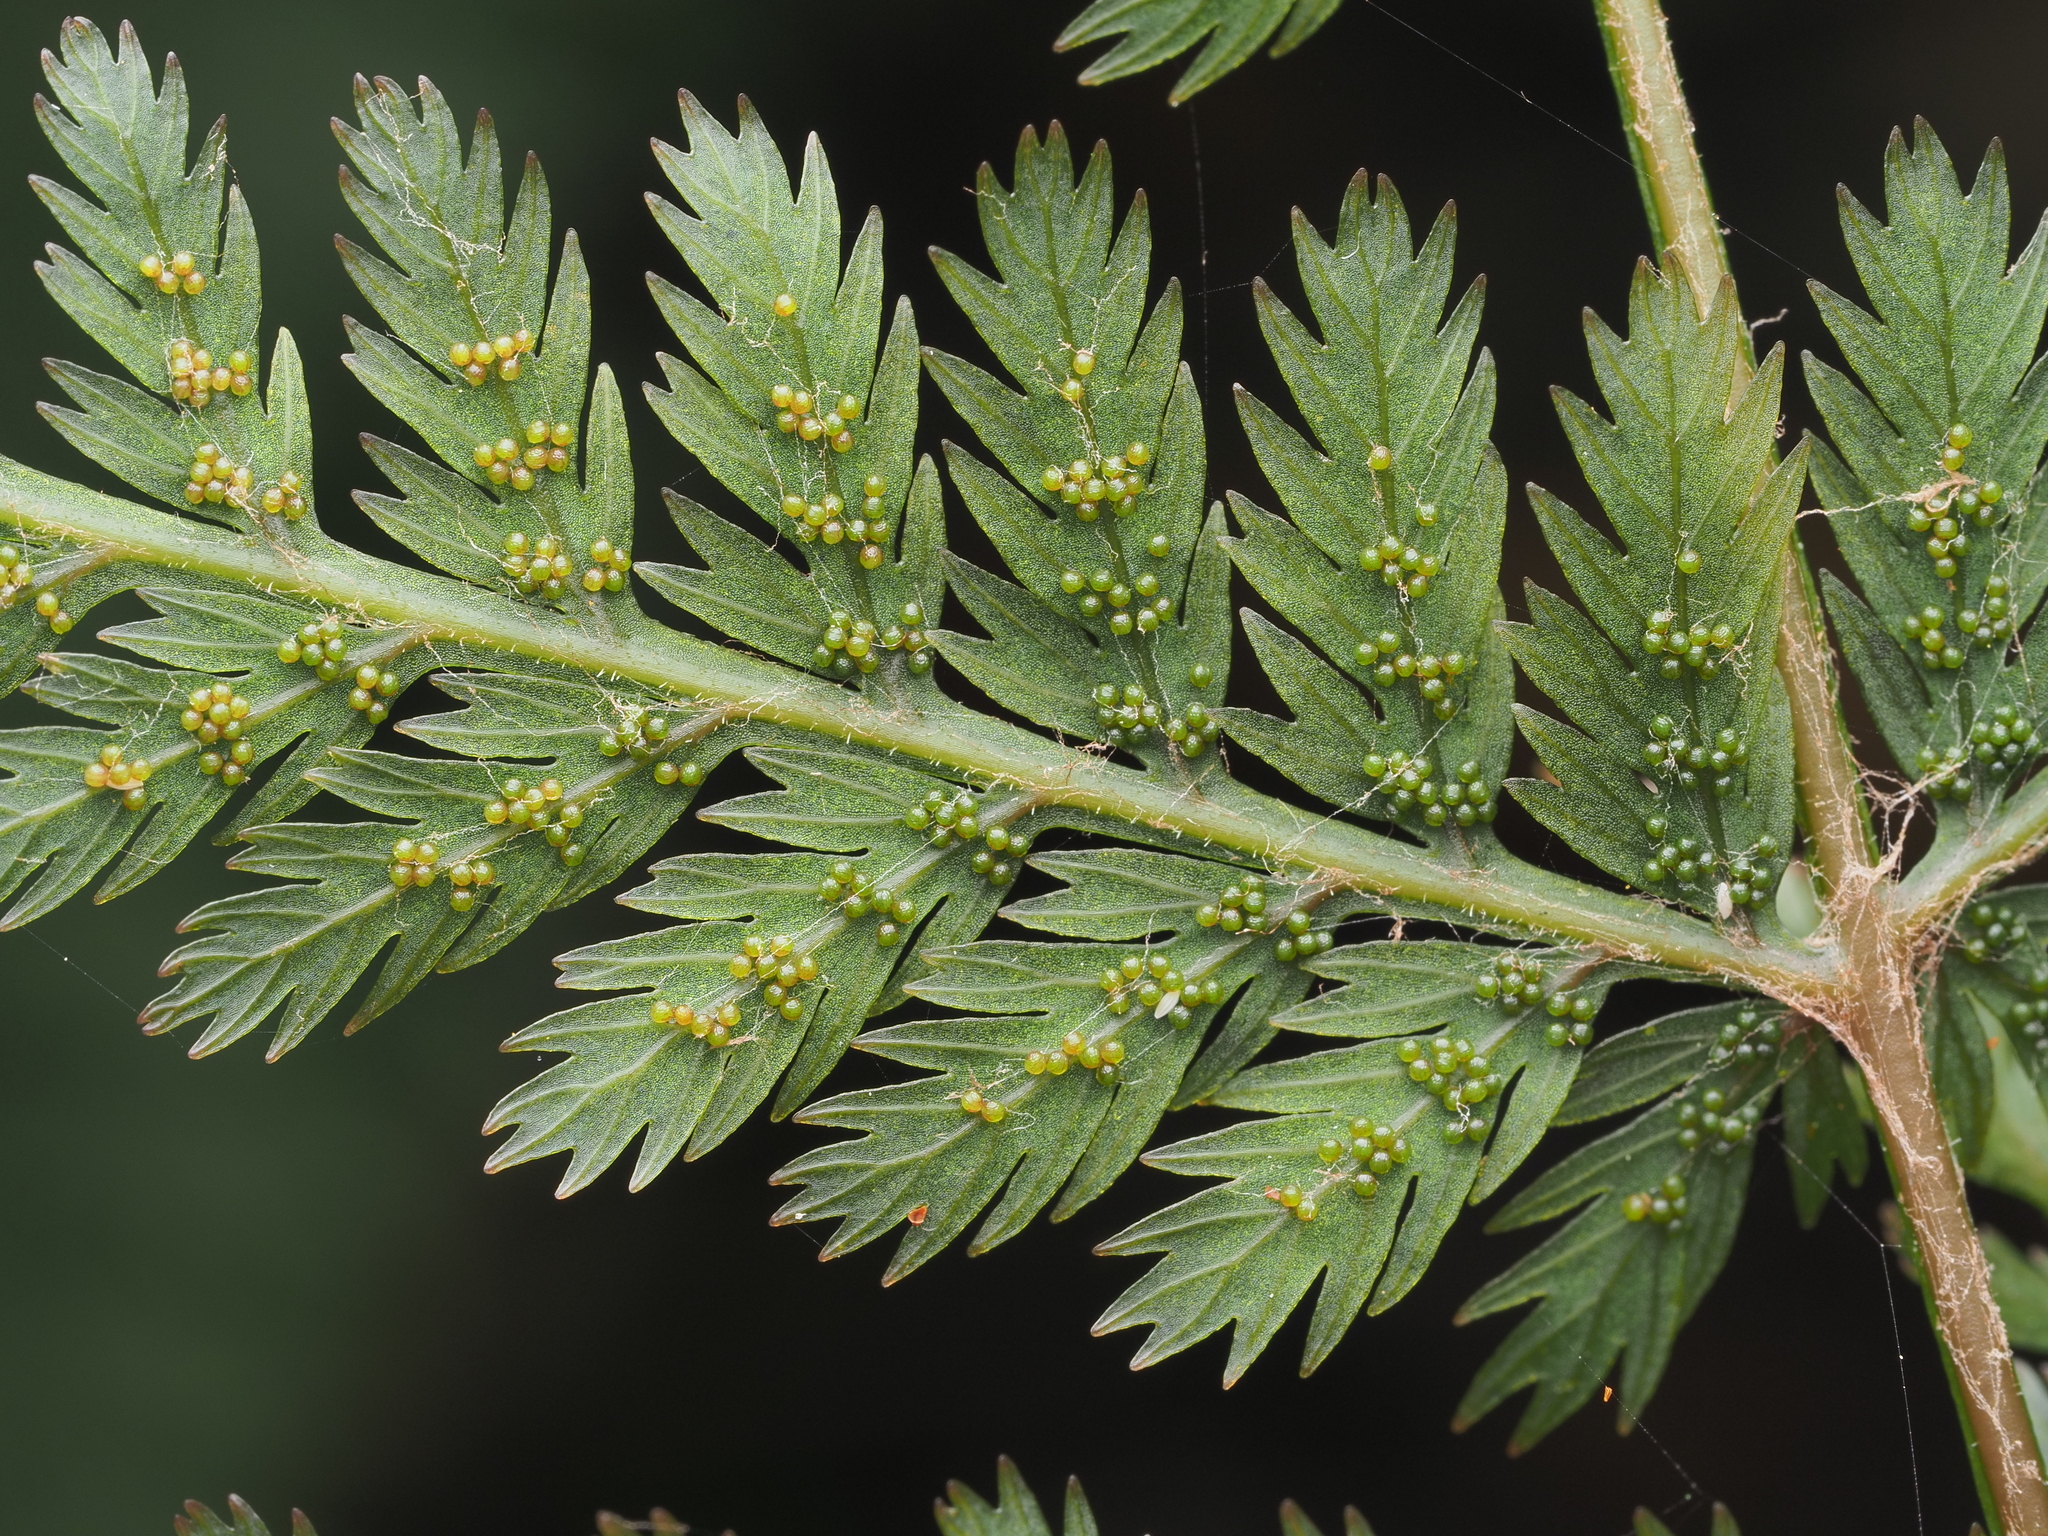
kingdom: Plantae
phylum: Tracheophyta
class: Polypodiopsida
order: Osmundales
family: Osmundaceae
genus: Leptopteris
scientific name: Leptopteris hymenophylloides
